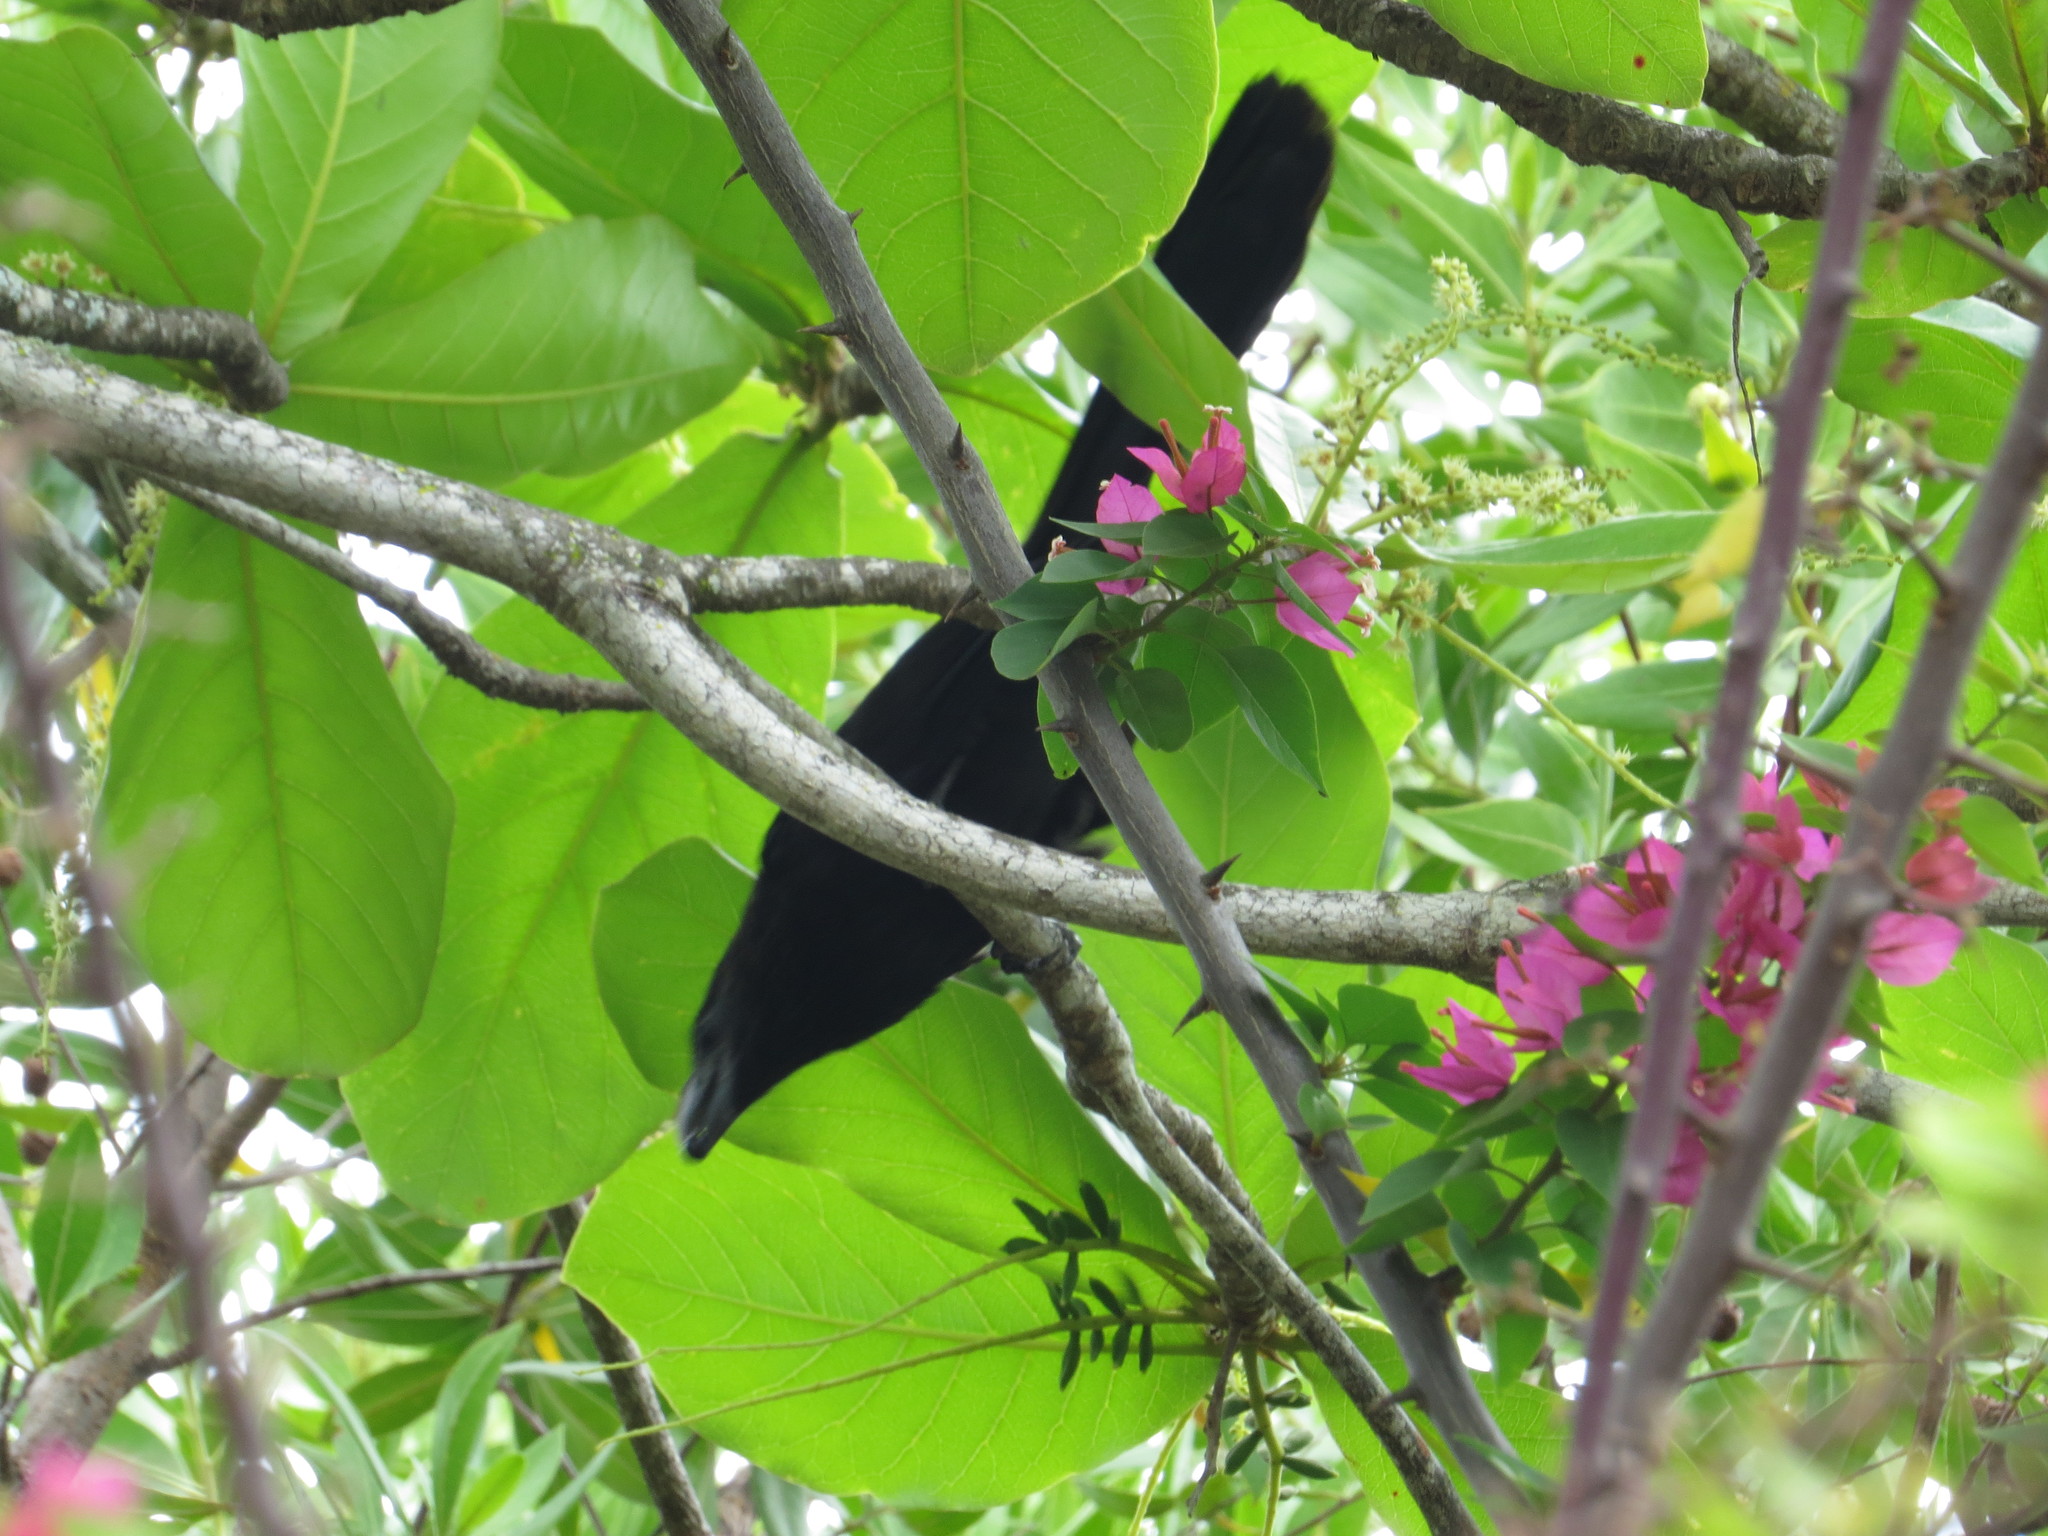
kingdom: Animalia
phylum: Chordata
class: Aves
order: Cuculiformes
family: Cuculidae
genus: Crotophaga
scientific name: Crotophaga ani
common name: Smooth-billed ani
